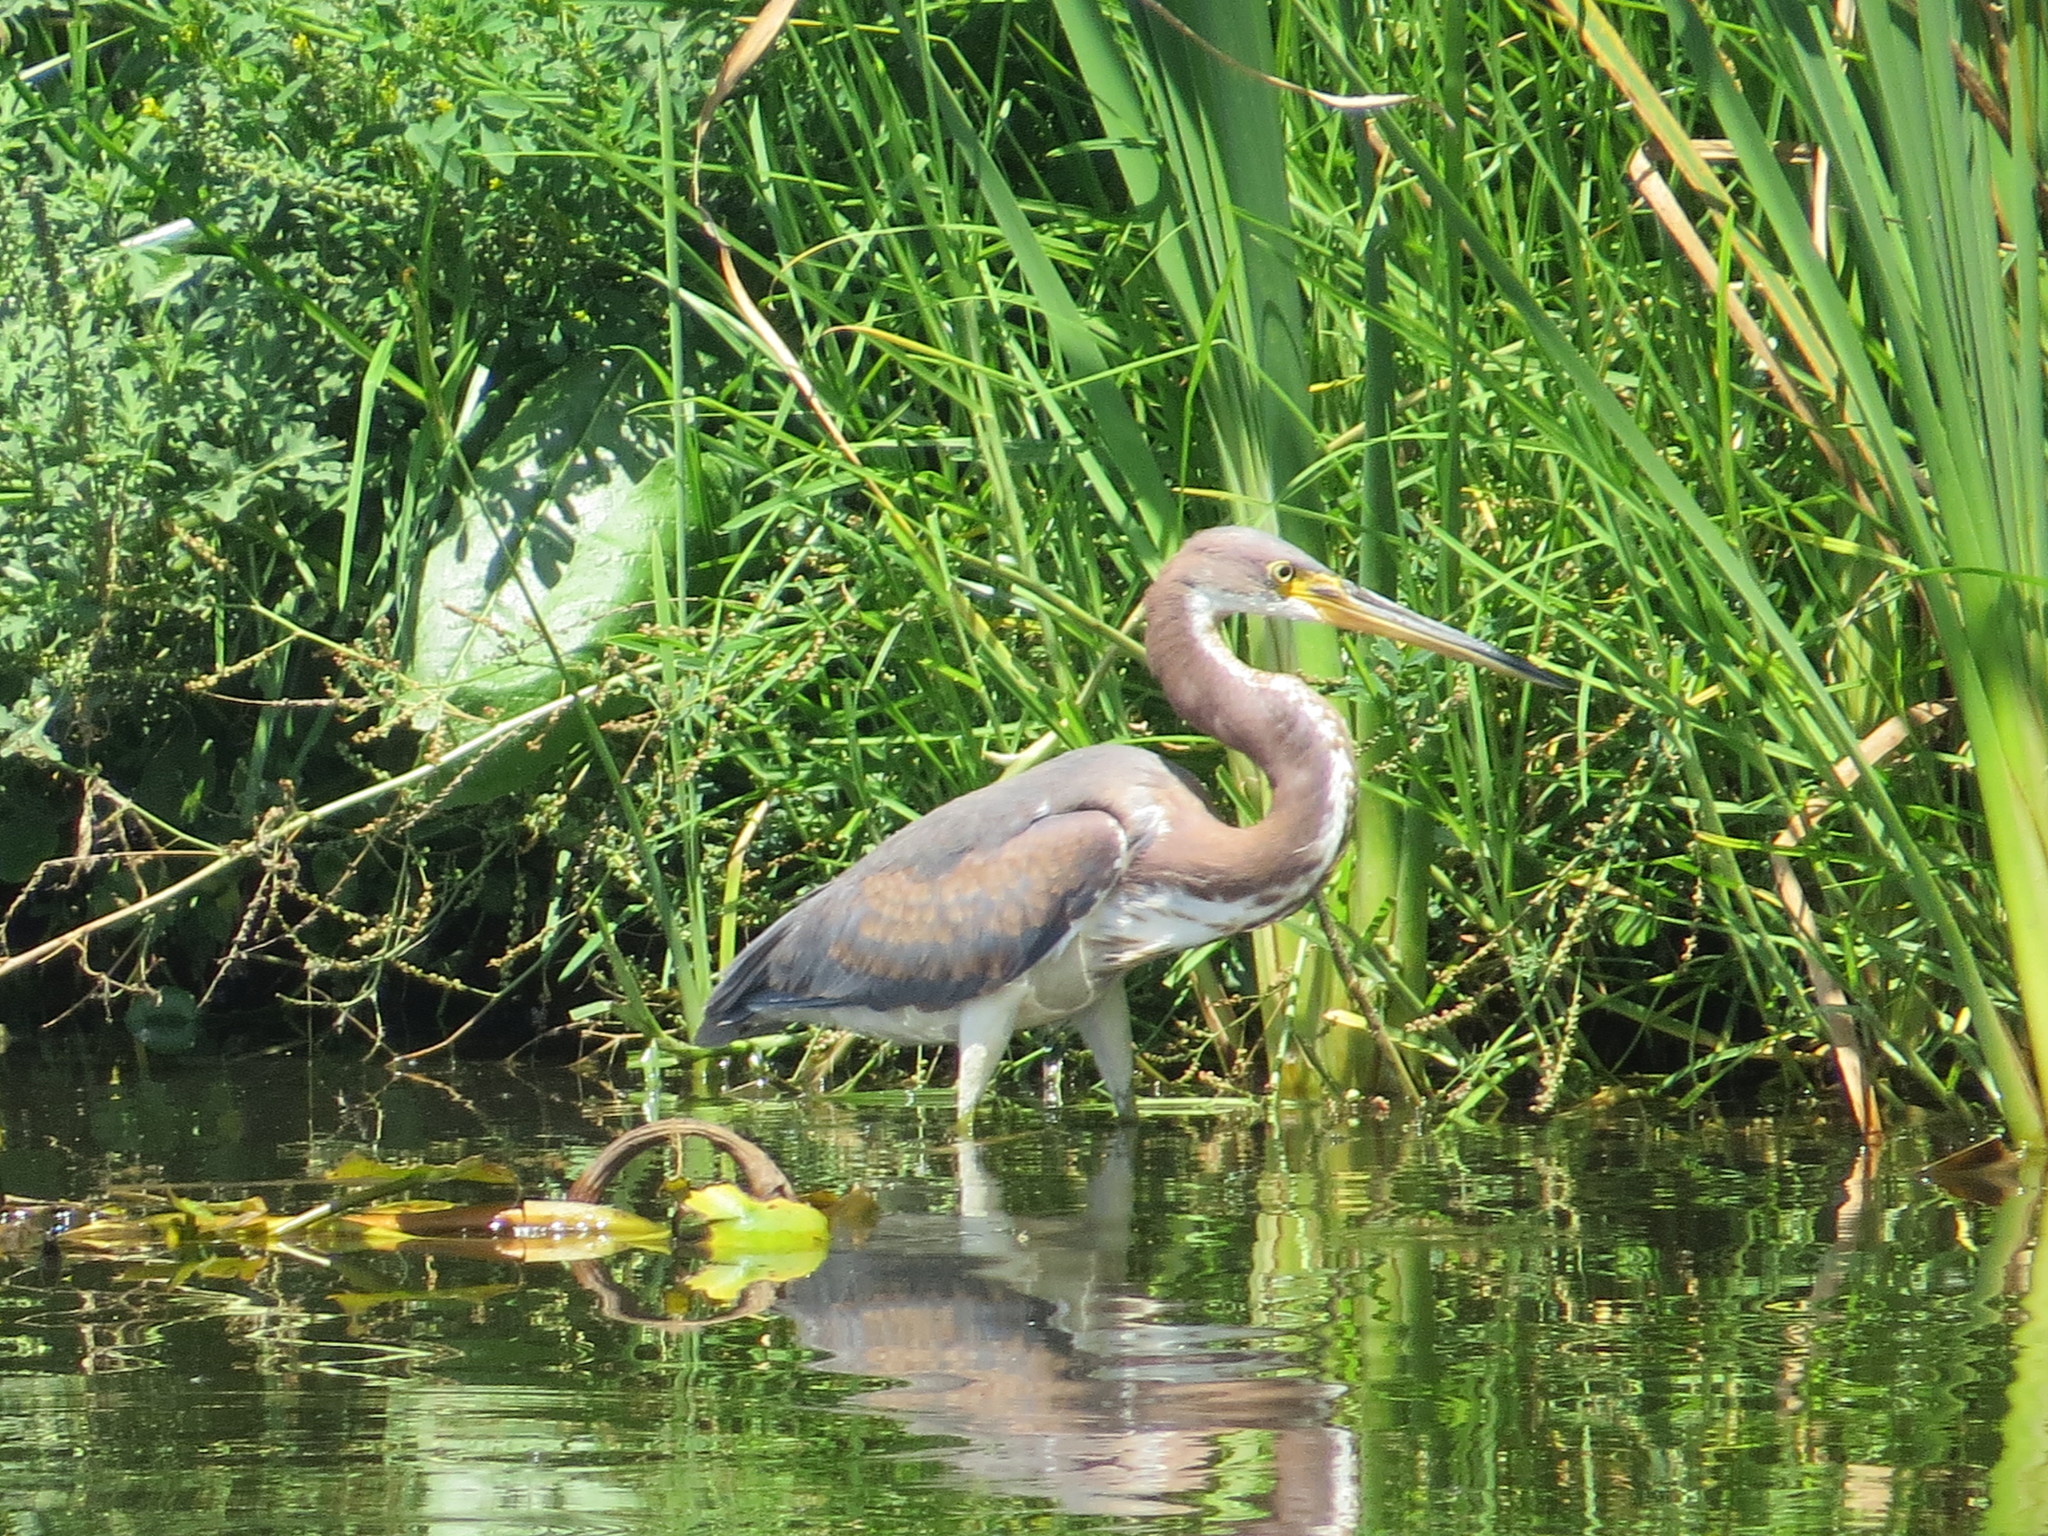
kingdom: Animalia
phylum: Chordata
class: Aves
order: Pelecaniformes
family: Ardeidae
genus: Egretta
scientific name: Egretta tricolor
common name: Tricolored heron
